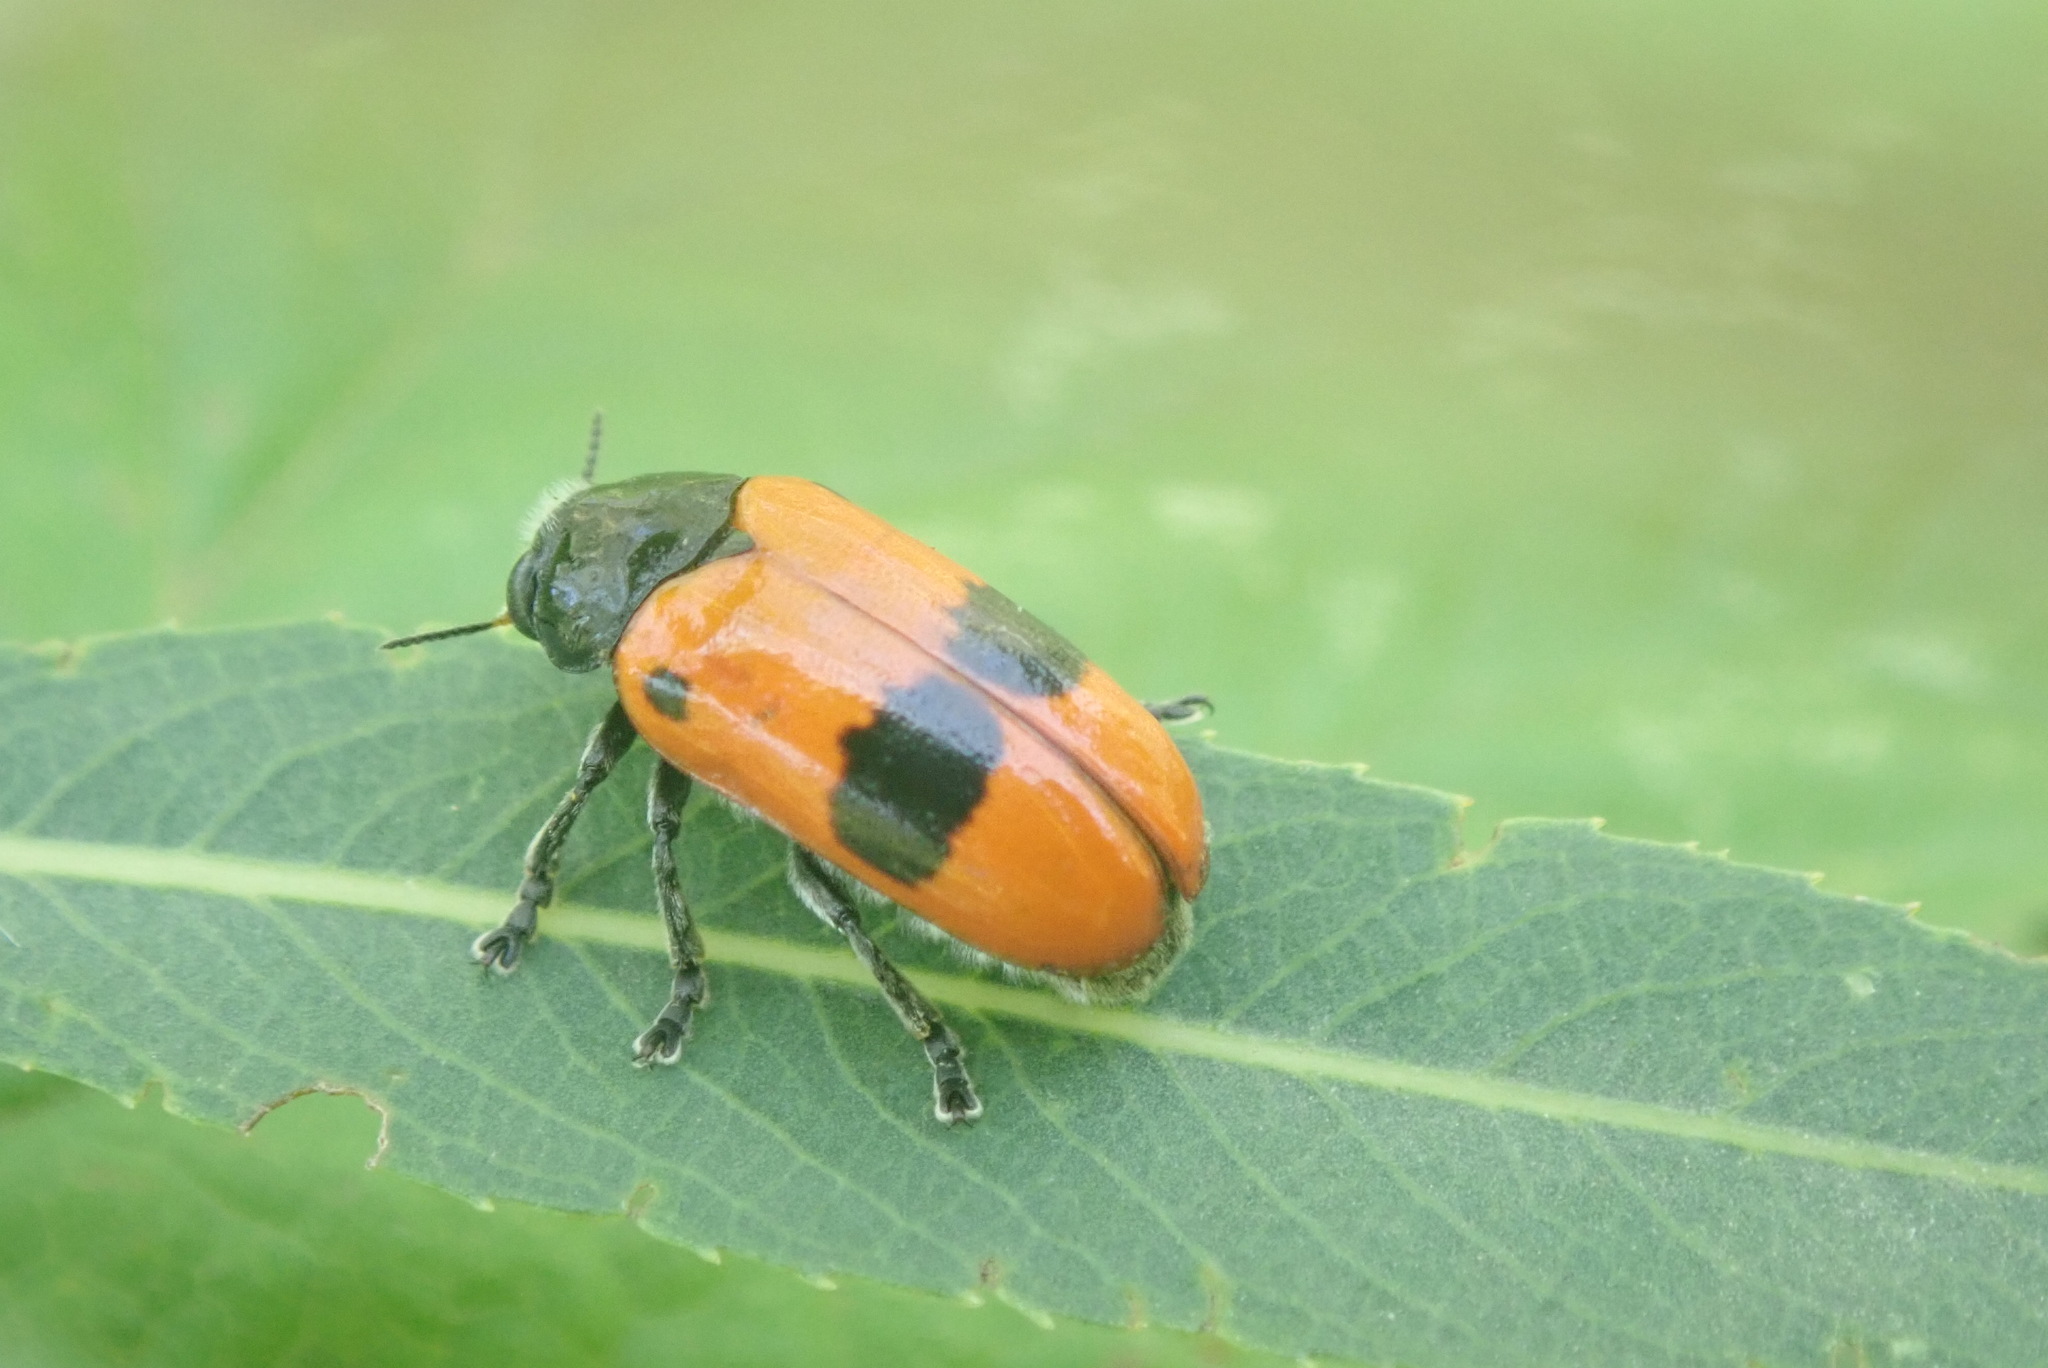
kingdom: Animalia
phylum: Arthropoda
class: Insecta
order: Coleoptera
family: Chrysomelidae
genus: Clytra
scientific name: Clytra laeviuscula
